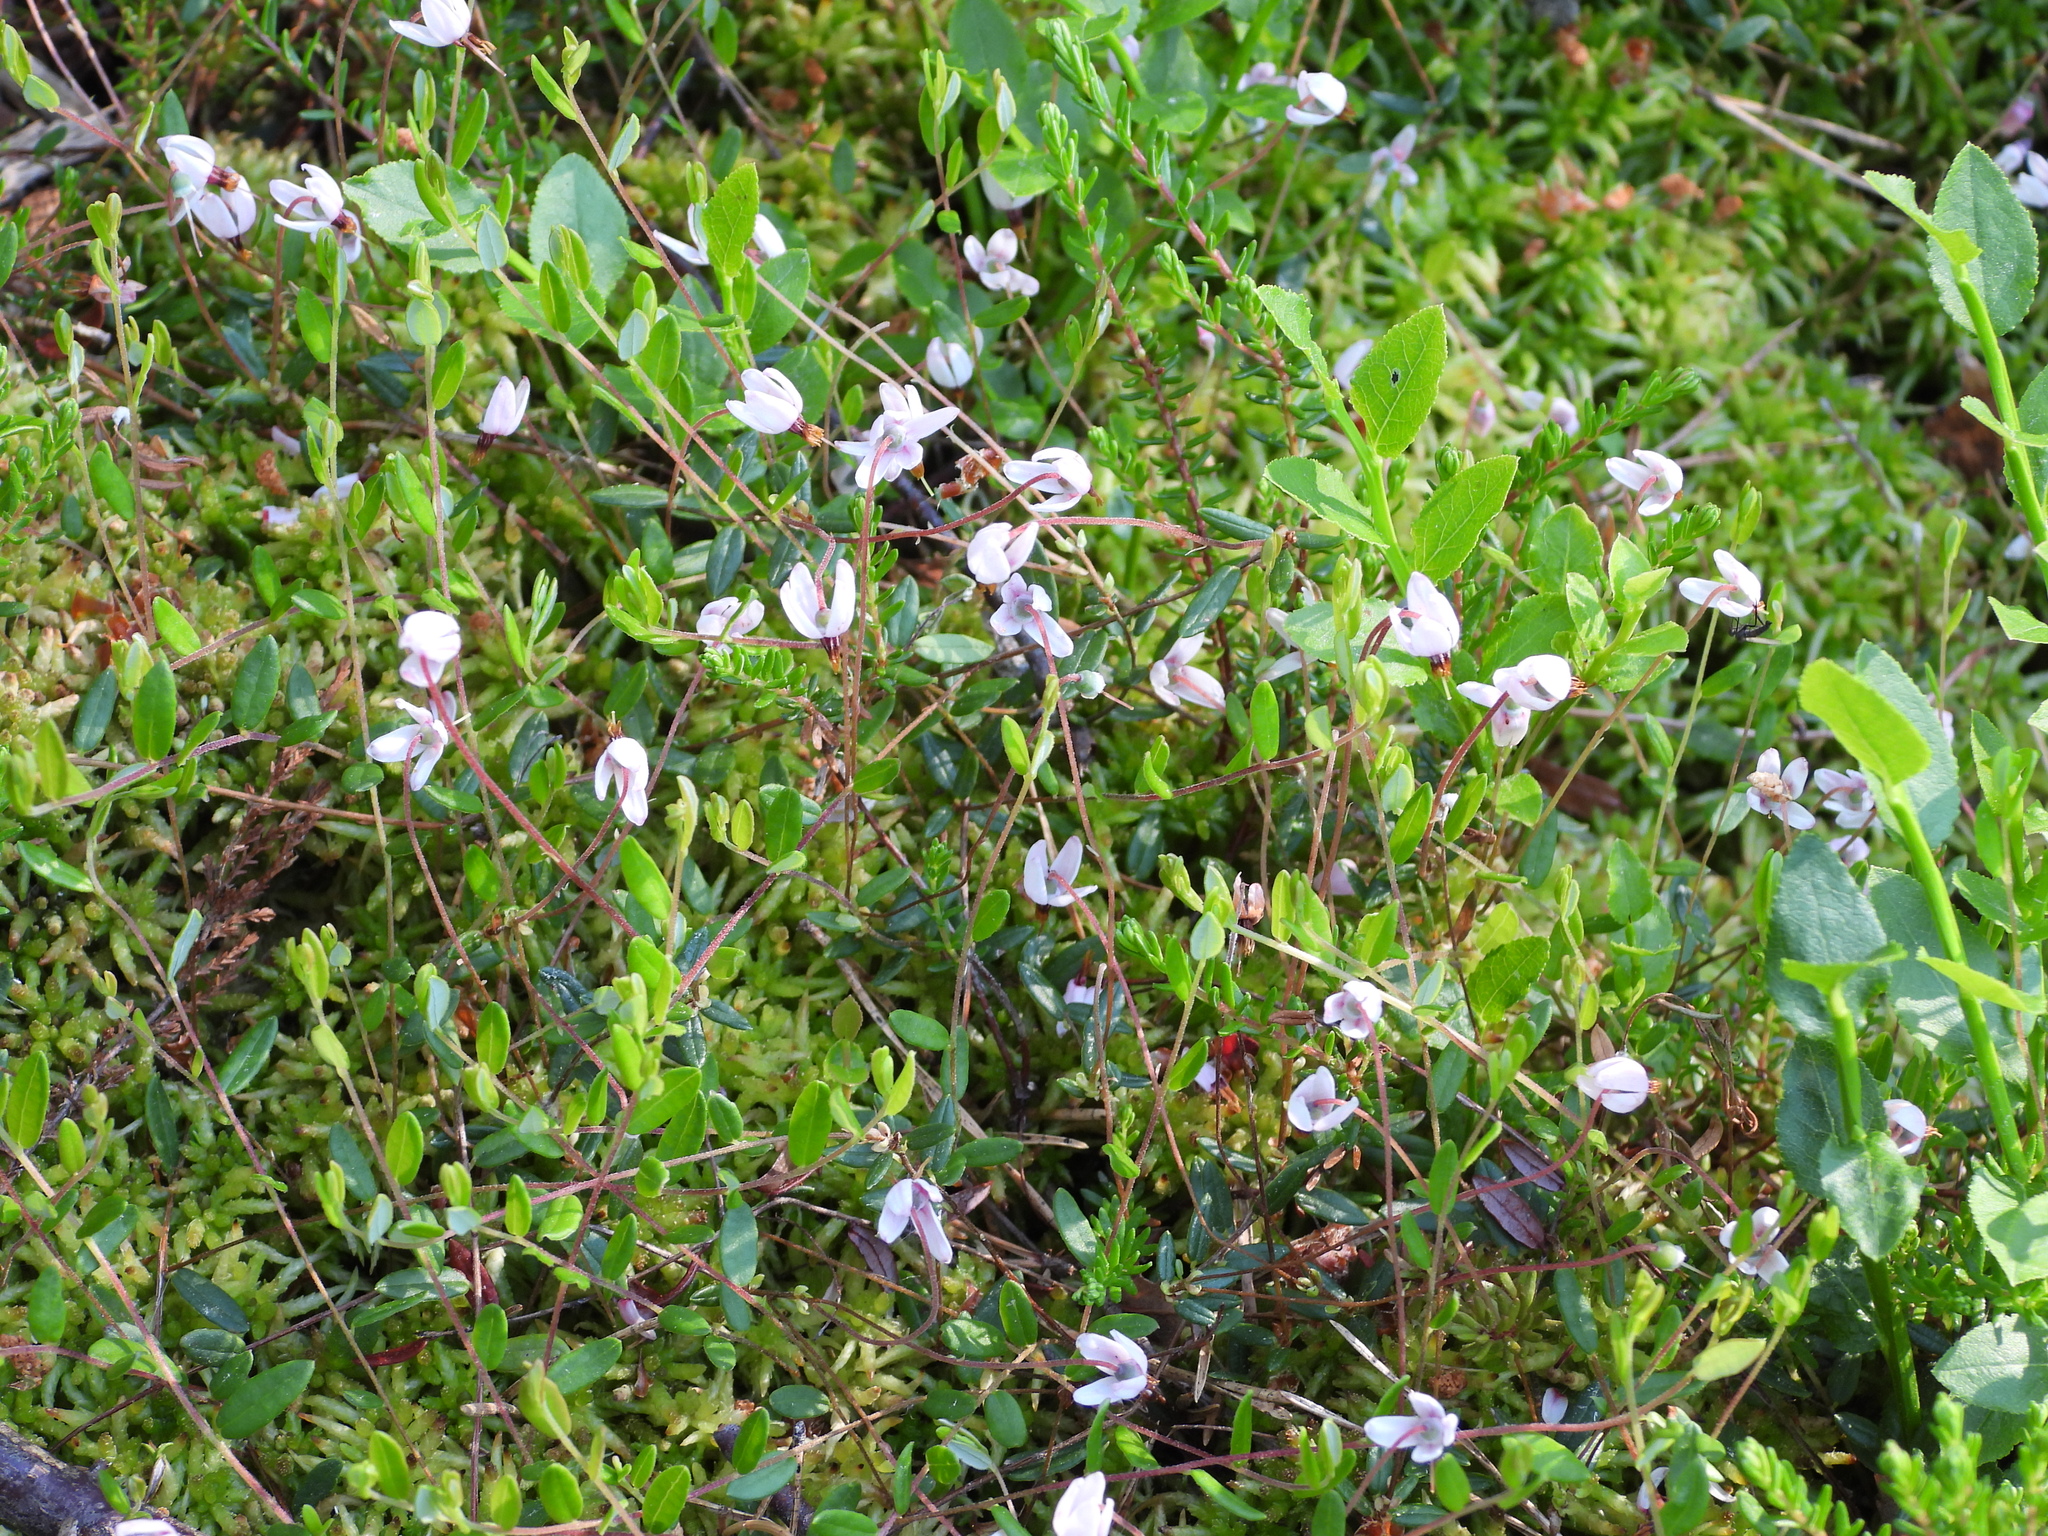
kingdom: Plantae
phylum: Tracheophyta
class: Magnoliopsida
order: Ericales
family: Ericaceae
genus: Vaccinium
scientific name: Vaccinium oxycoccos
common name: Cranberry
